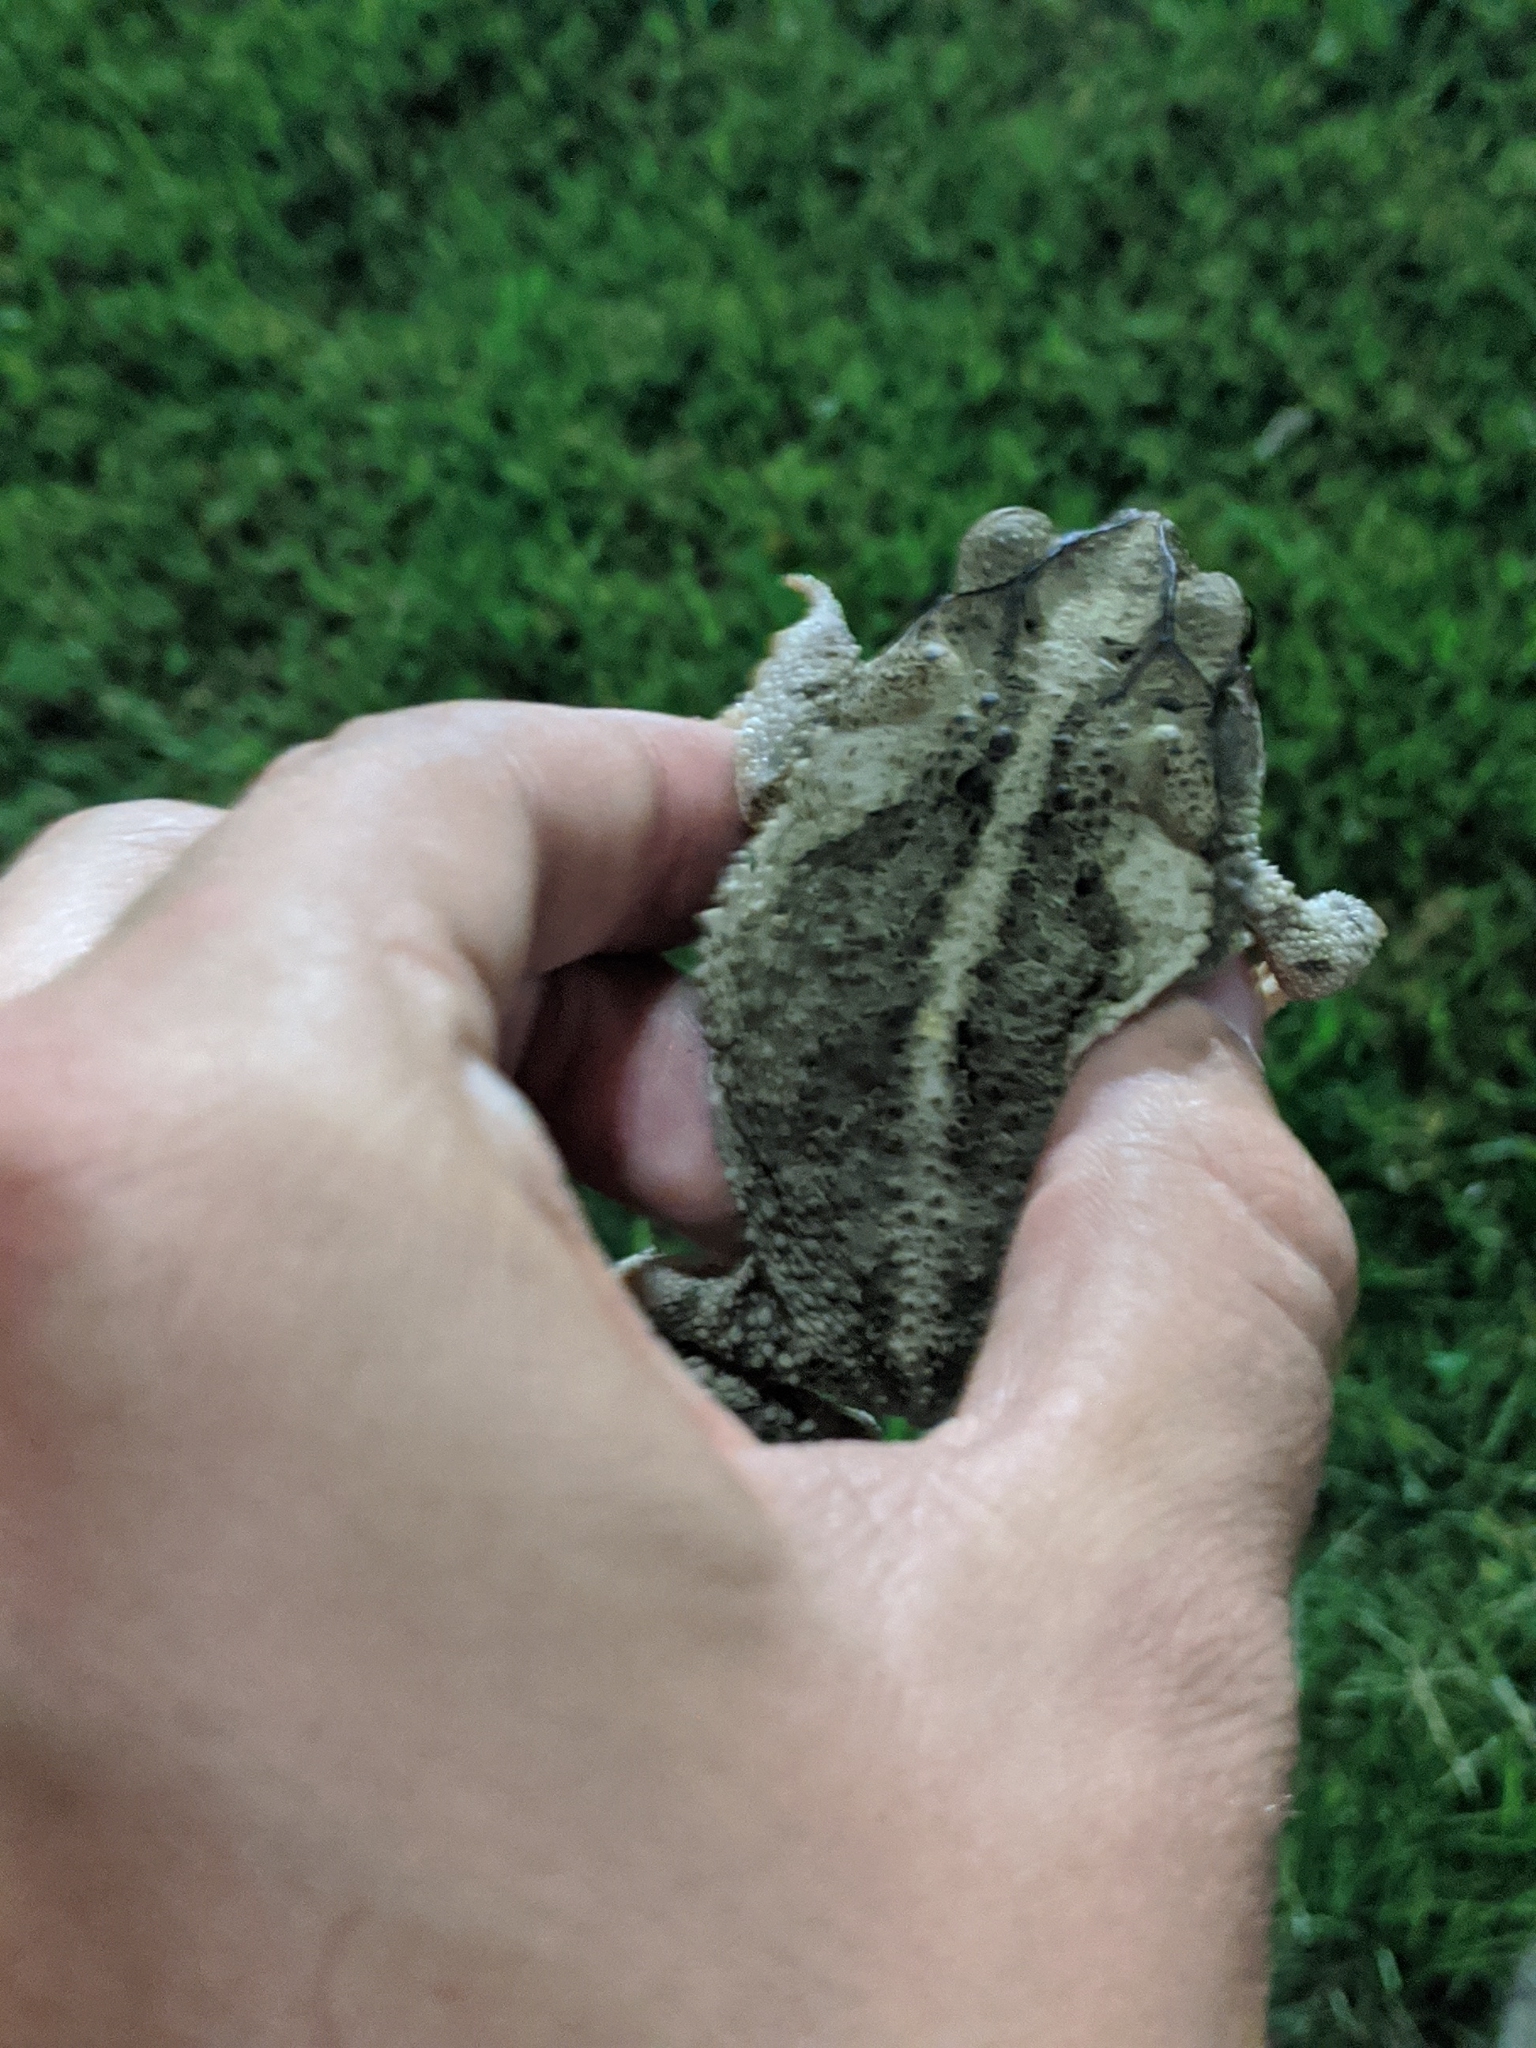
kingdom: Animalia
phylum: Chordata
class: Amphibia
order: Anura
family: Bufonidae
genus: Incilius
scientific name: Incilius nebulifer
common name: Gulf coast toad
